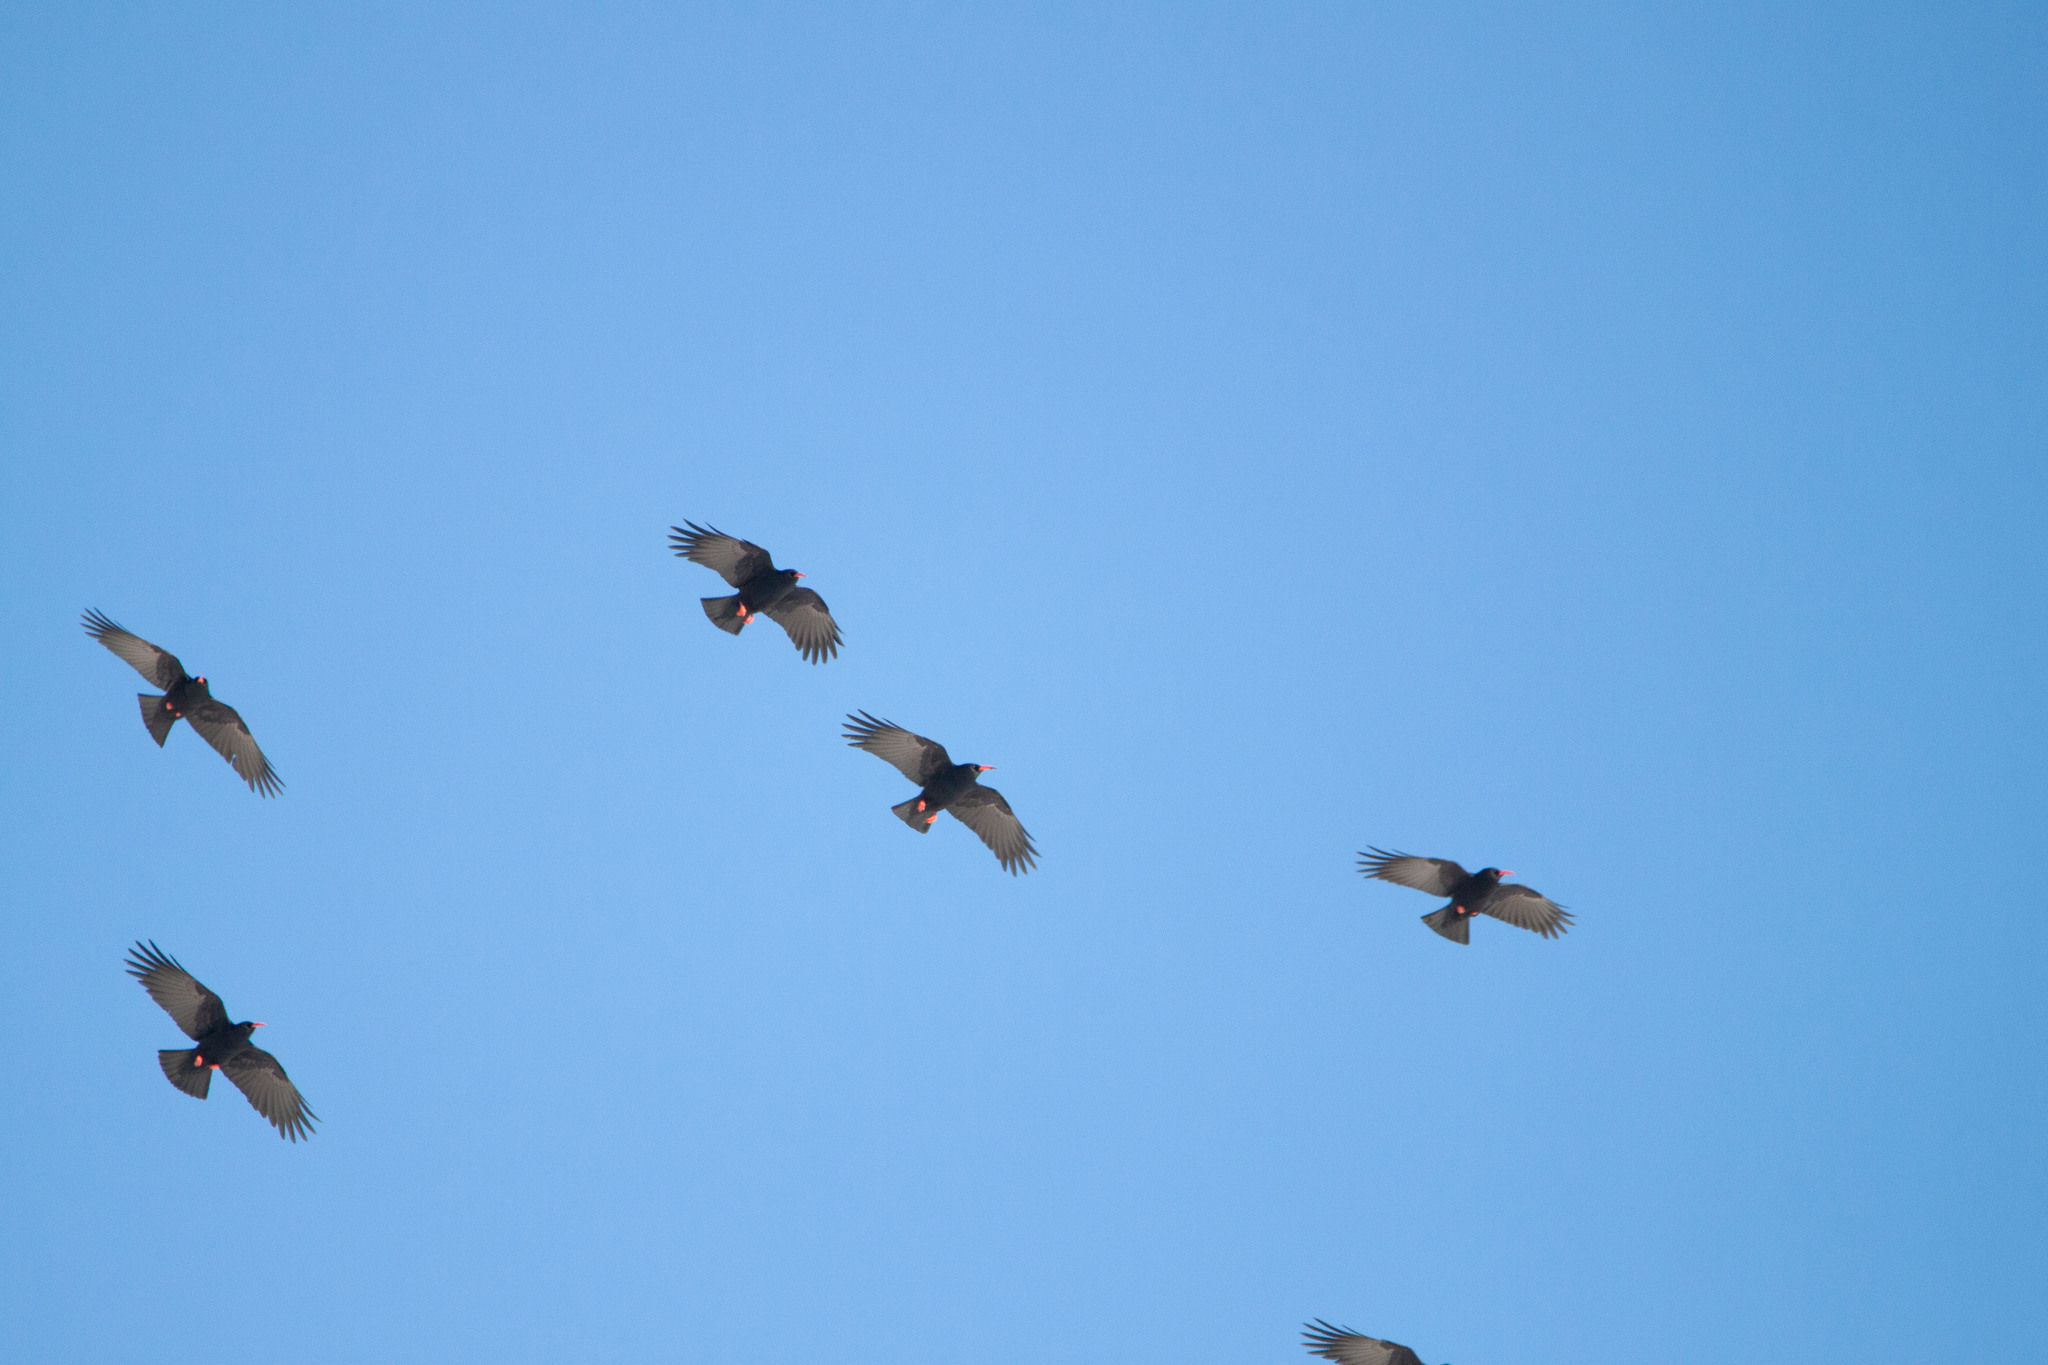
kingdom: Animalia
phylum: Chordata
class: Aves
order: Passeriformes
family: Corvidae
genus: Pyrrhocorax
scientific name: Pyrrhocorax pyrrhocorax
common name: Red-billed chough
